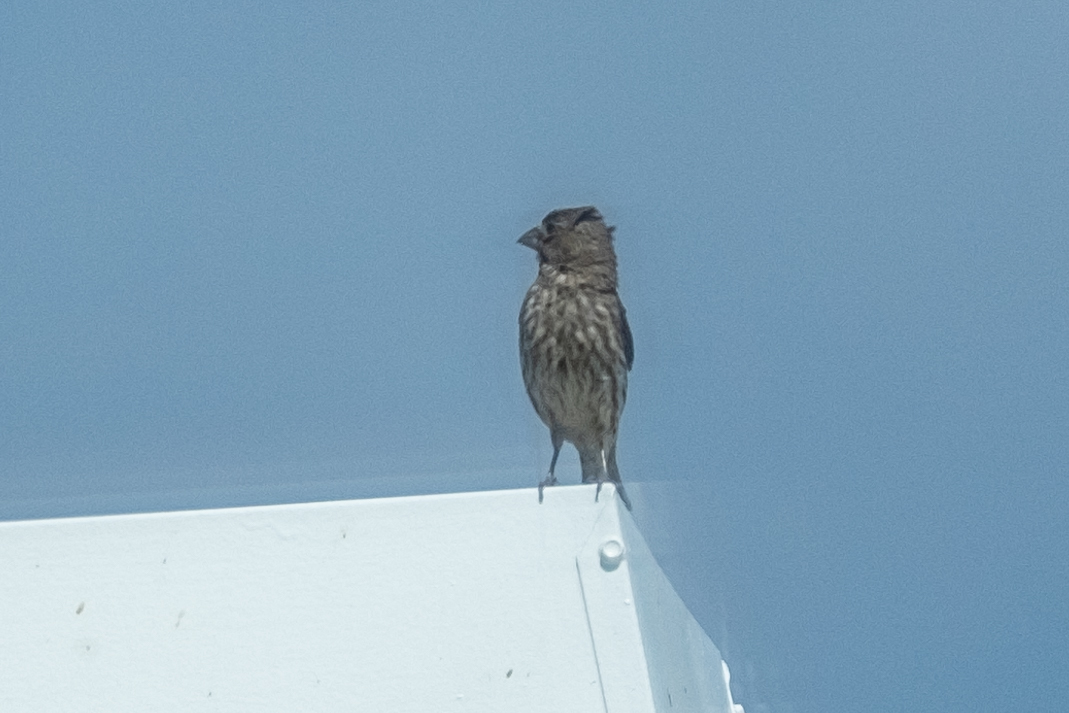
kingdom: Animalia
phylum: Chordata
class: Aves
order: Passeriformes
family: Fringillidae
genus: Haemorhous
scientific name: Haemorhous mexicanus
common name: House finch
